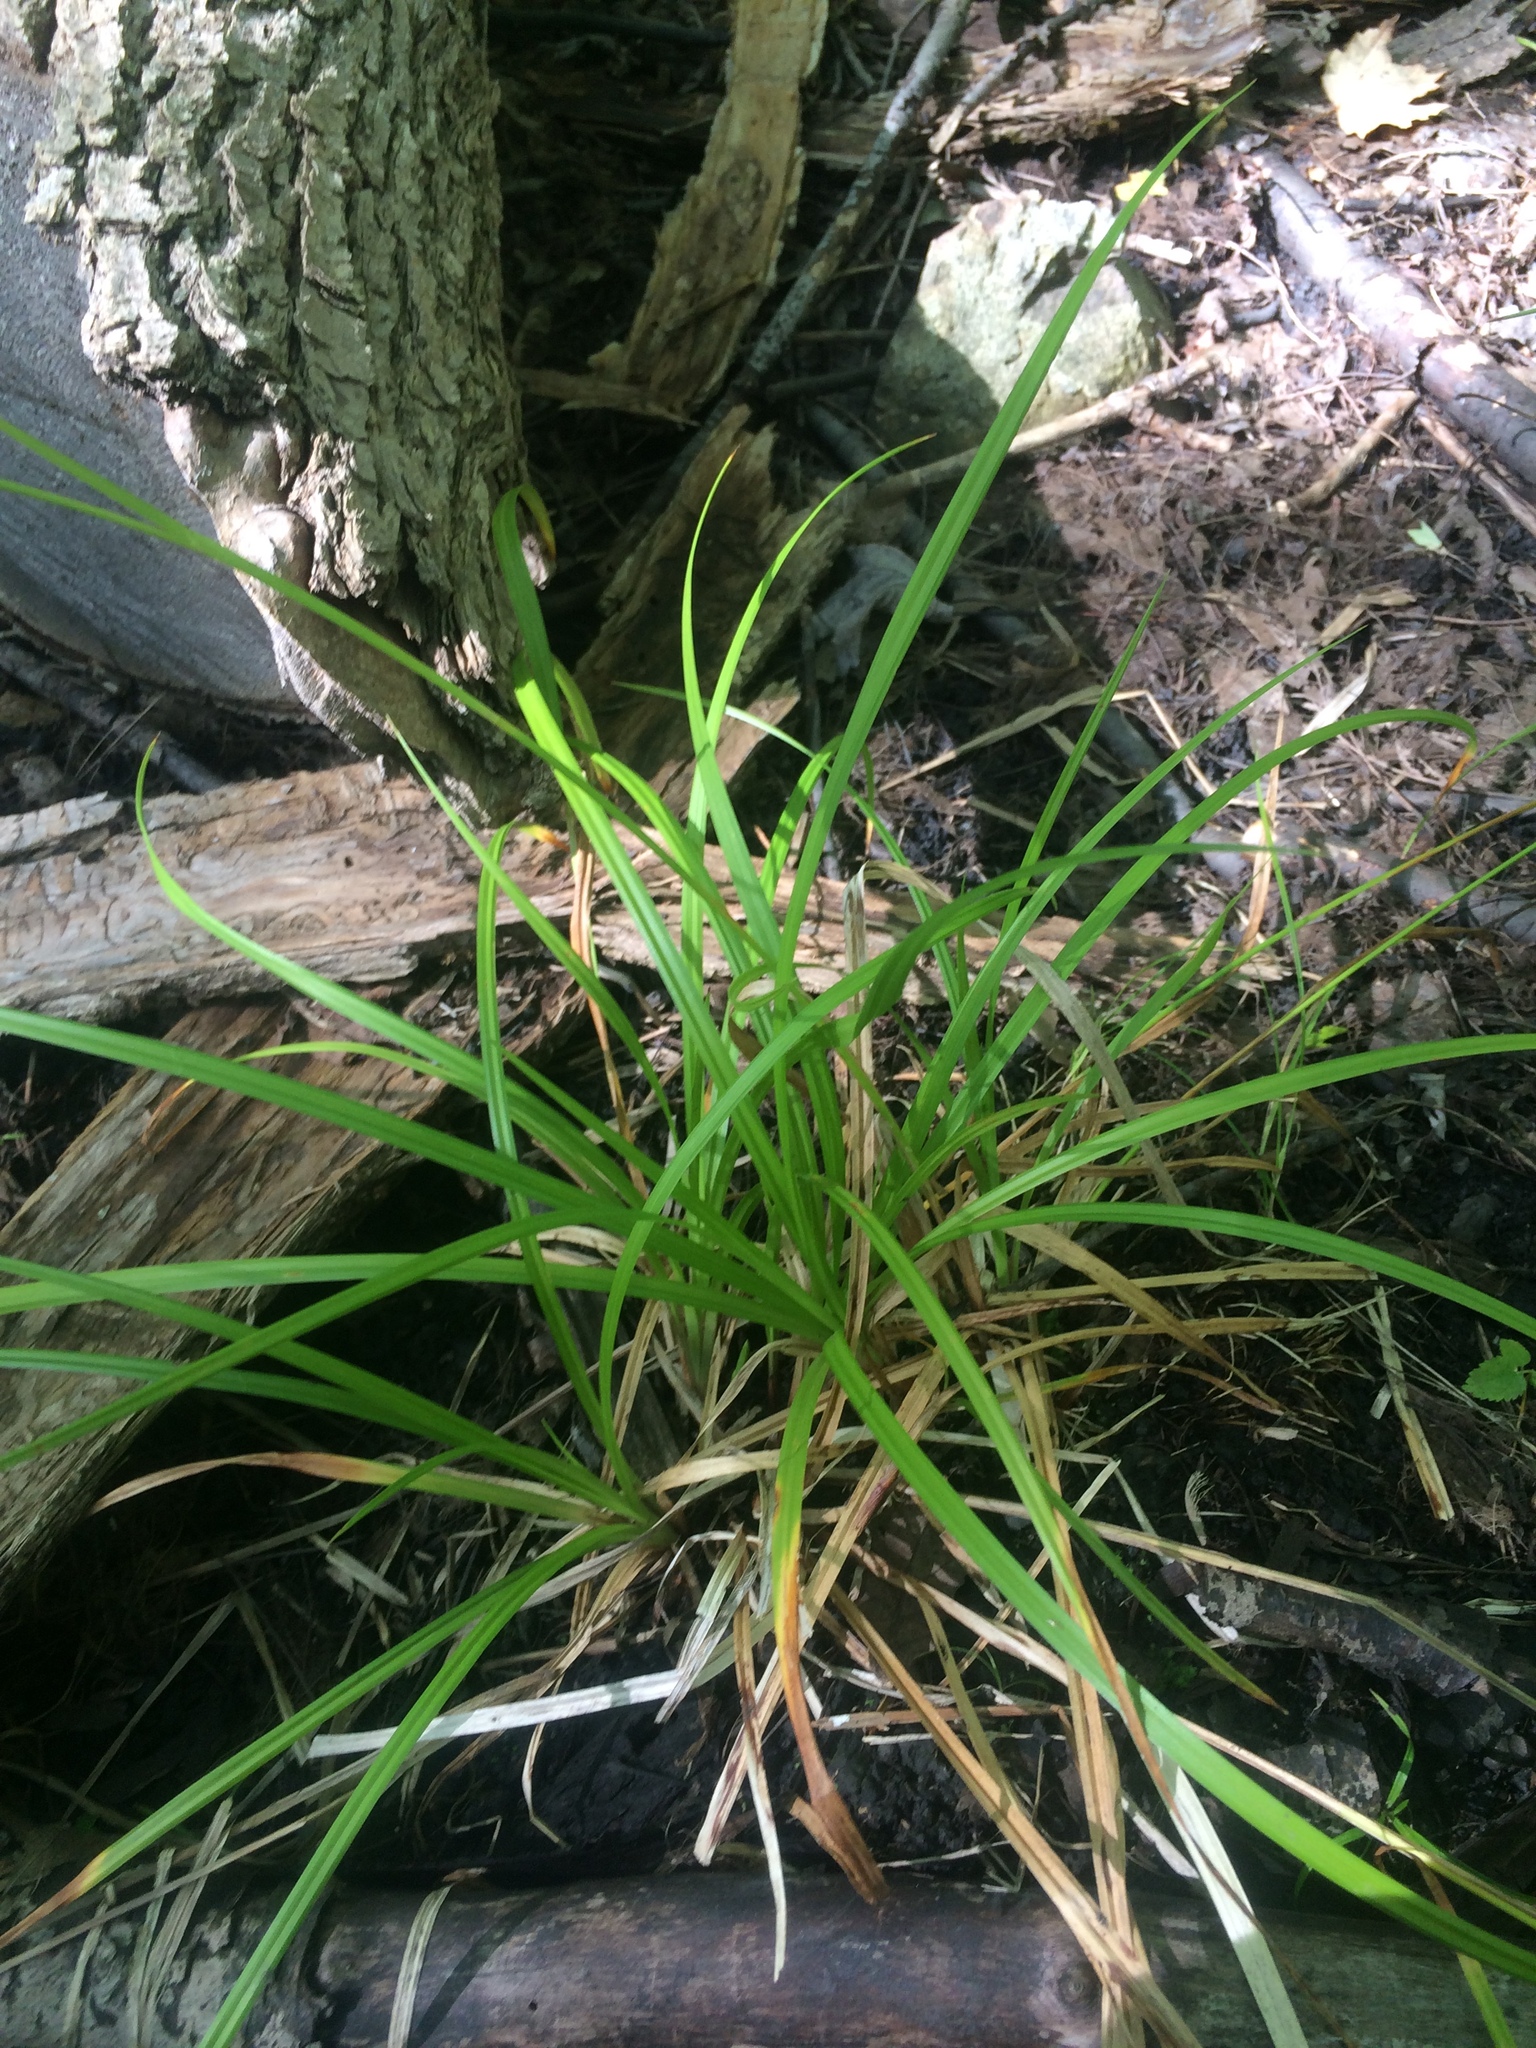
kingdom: Plantae
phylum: Tracheophyta
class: Liliopsida
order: Poales
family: Cyperaceae
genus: Carex
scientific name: Carex intumescens
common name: Greater bladder sedge
